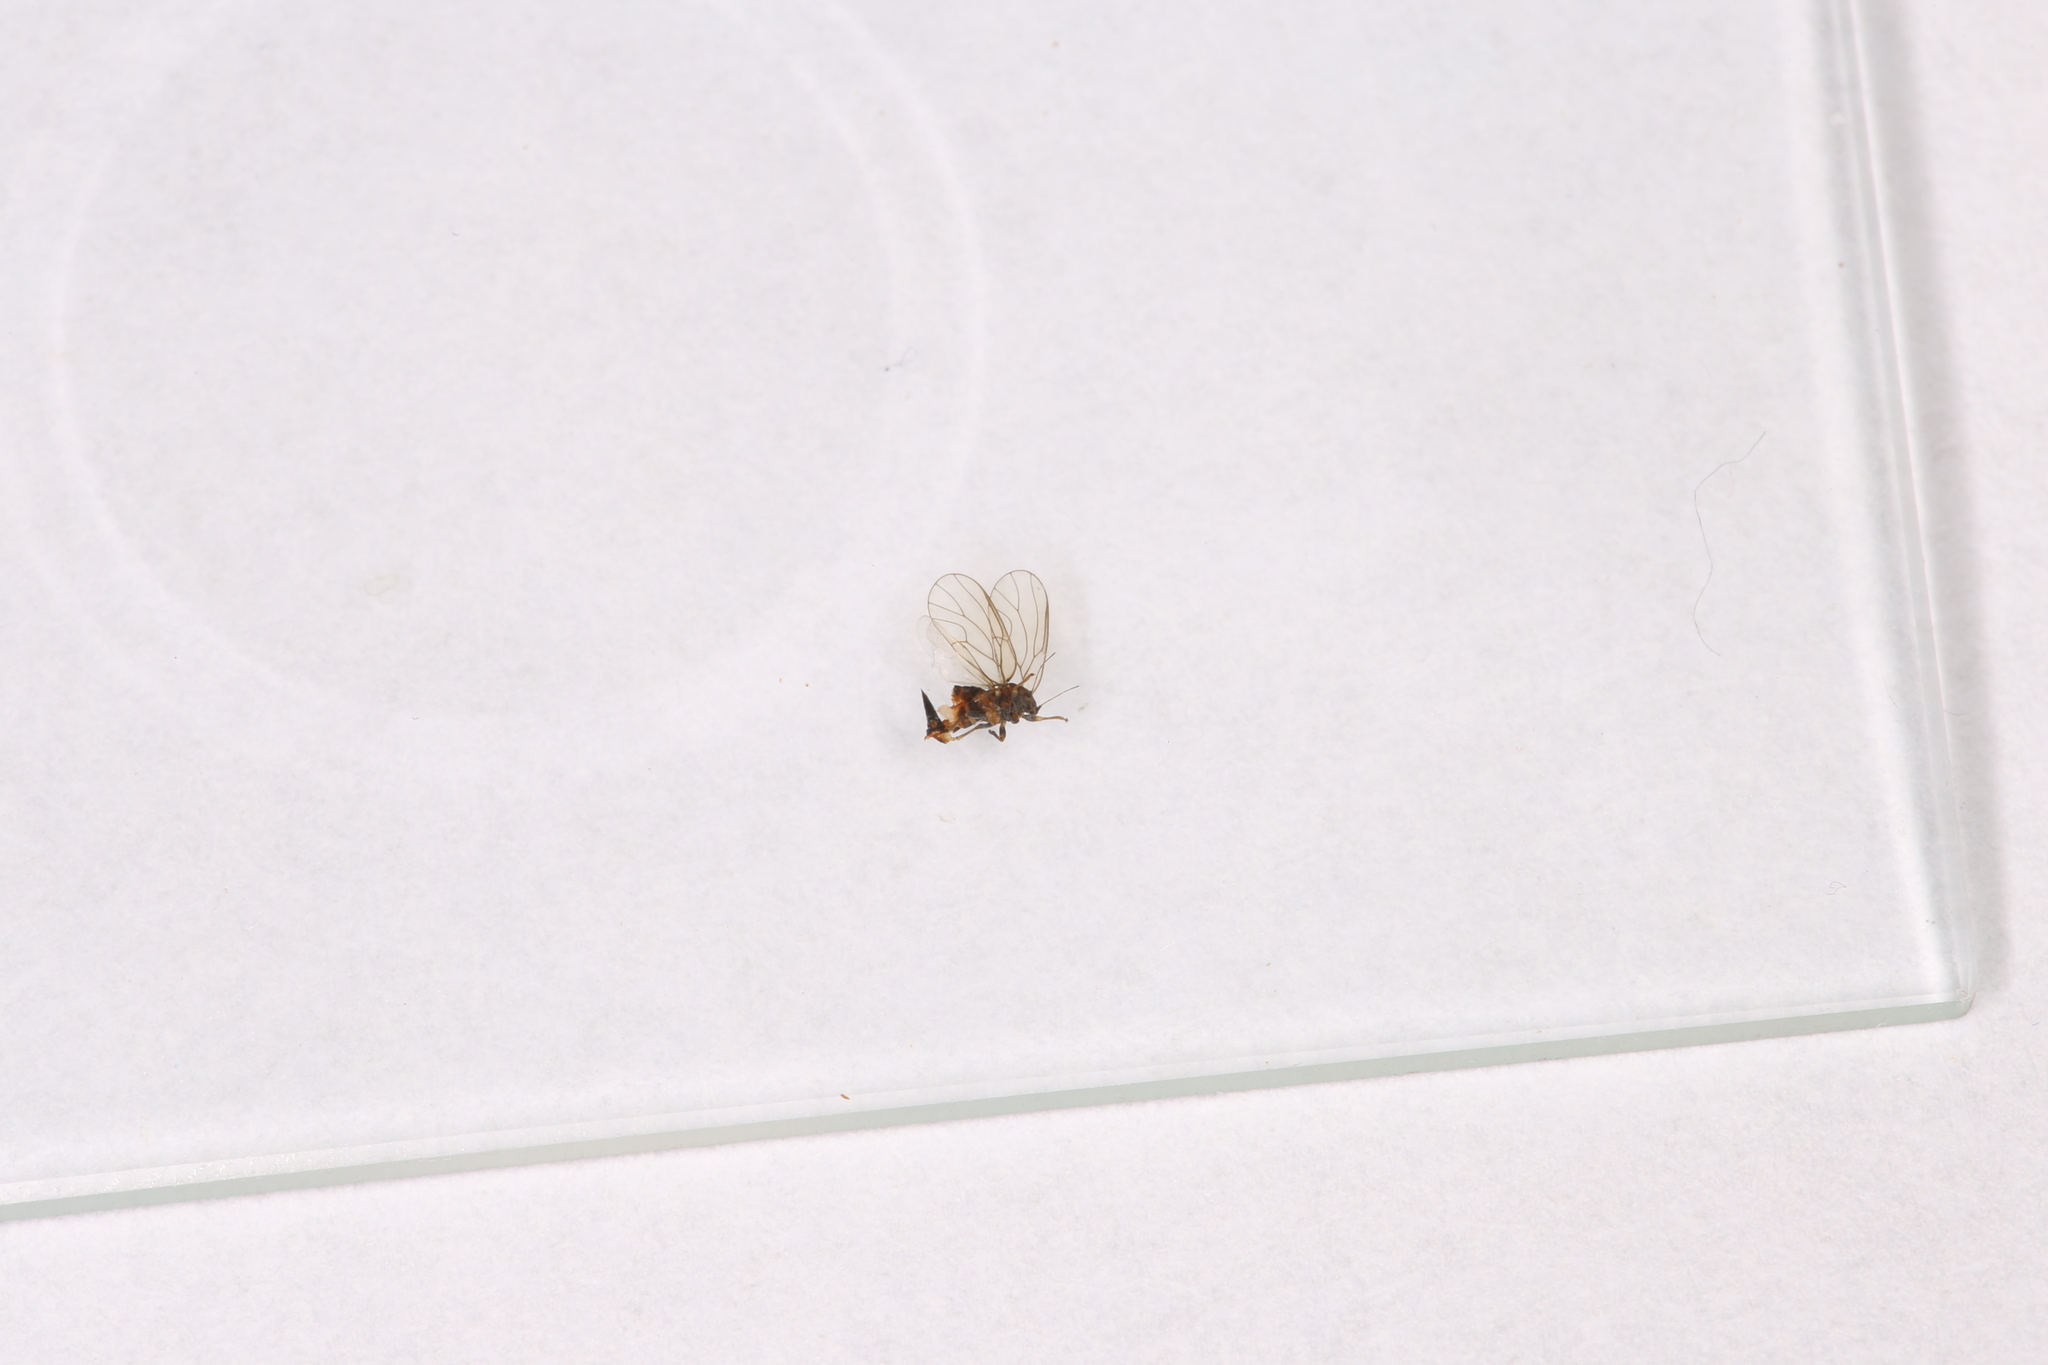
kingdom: Animalia
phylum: Arthropoda
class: Insecta
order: Hemiptera
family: Psyllidae
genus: Cacopsylla
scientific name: Cacopsylla melanoneura
